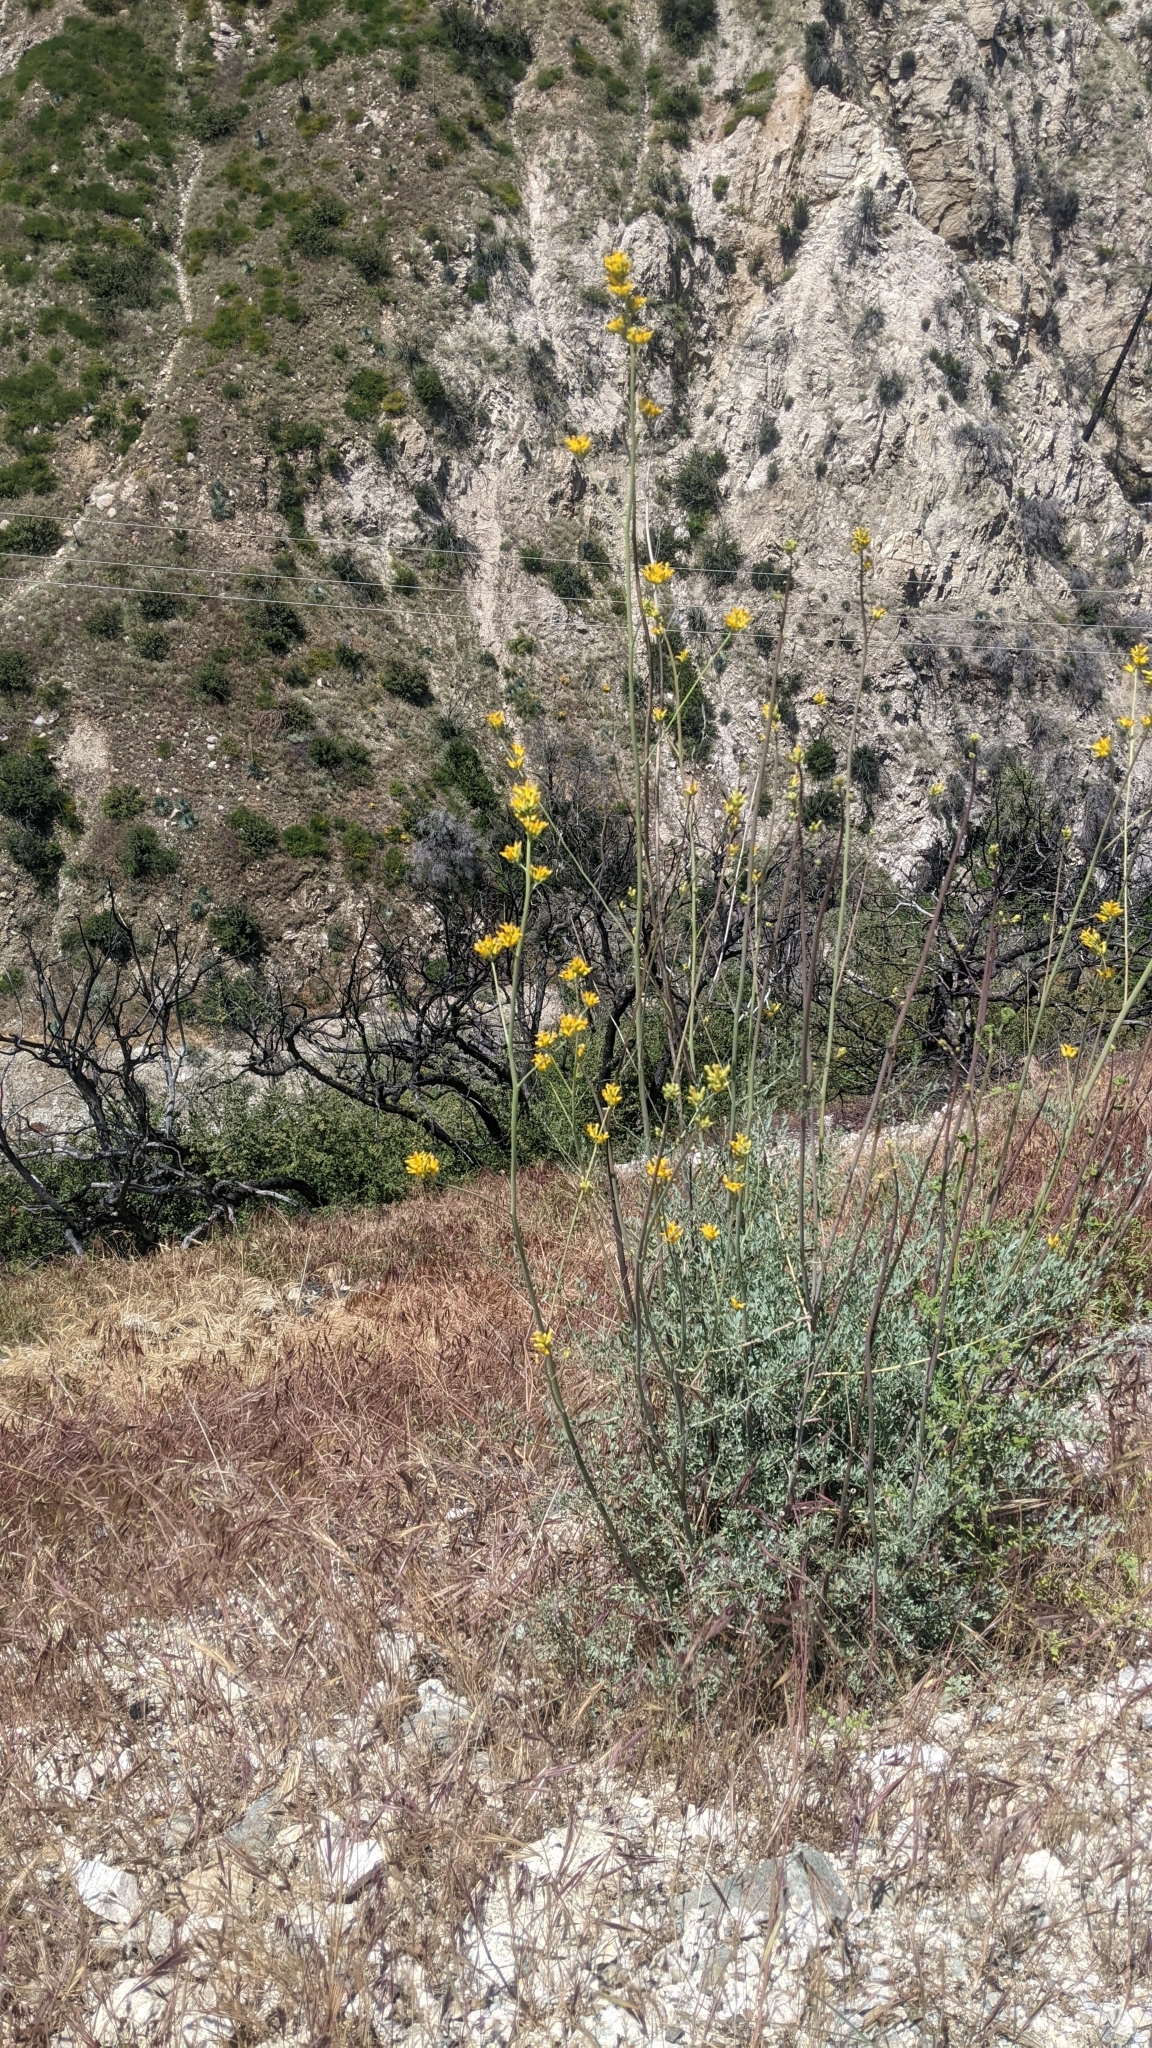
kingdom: Plantae
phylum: Tracheophyta
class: Magnoliopsida
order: Ranunculales
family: Papaveraceae
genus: Ehrendorferia
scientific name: Ehrendorferia chrysantha
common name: Golden eardrops
